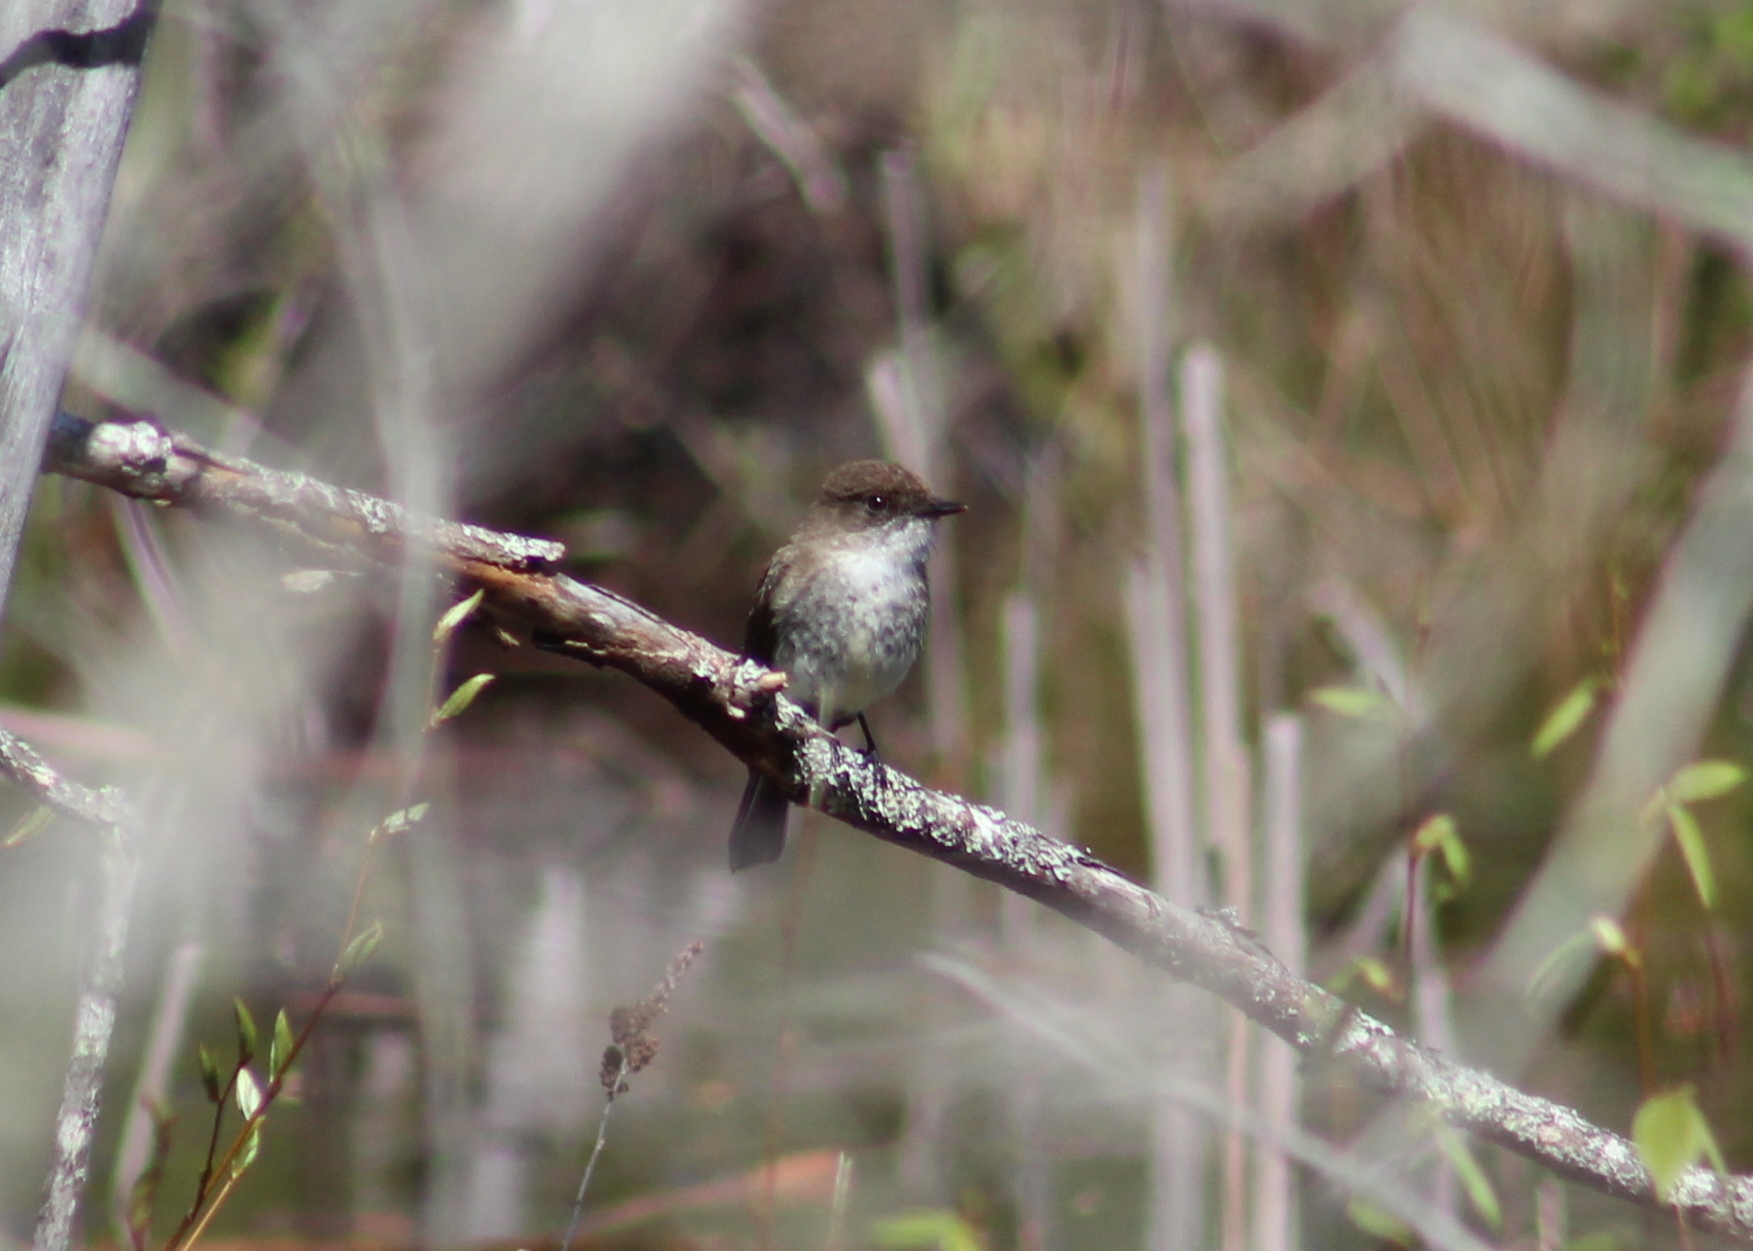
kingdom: Animalia
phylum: Chordata
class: Aves
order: Passeriformes
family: Tyrannidae
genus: Sayornis
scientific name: Sayornis phoebe
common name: Eastern phoebe
